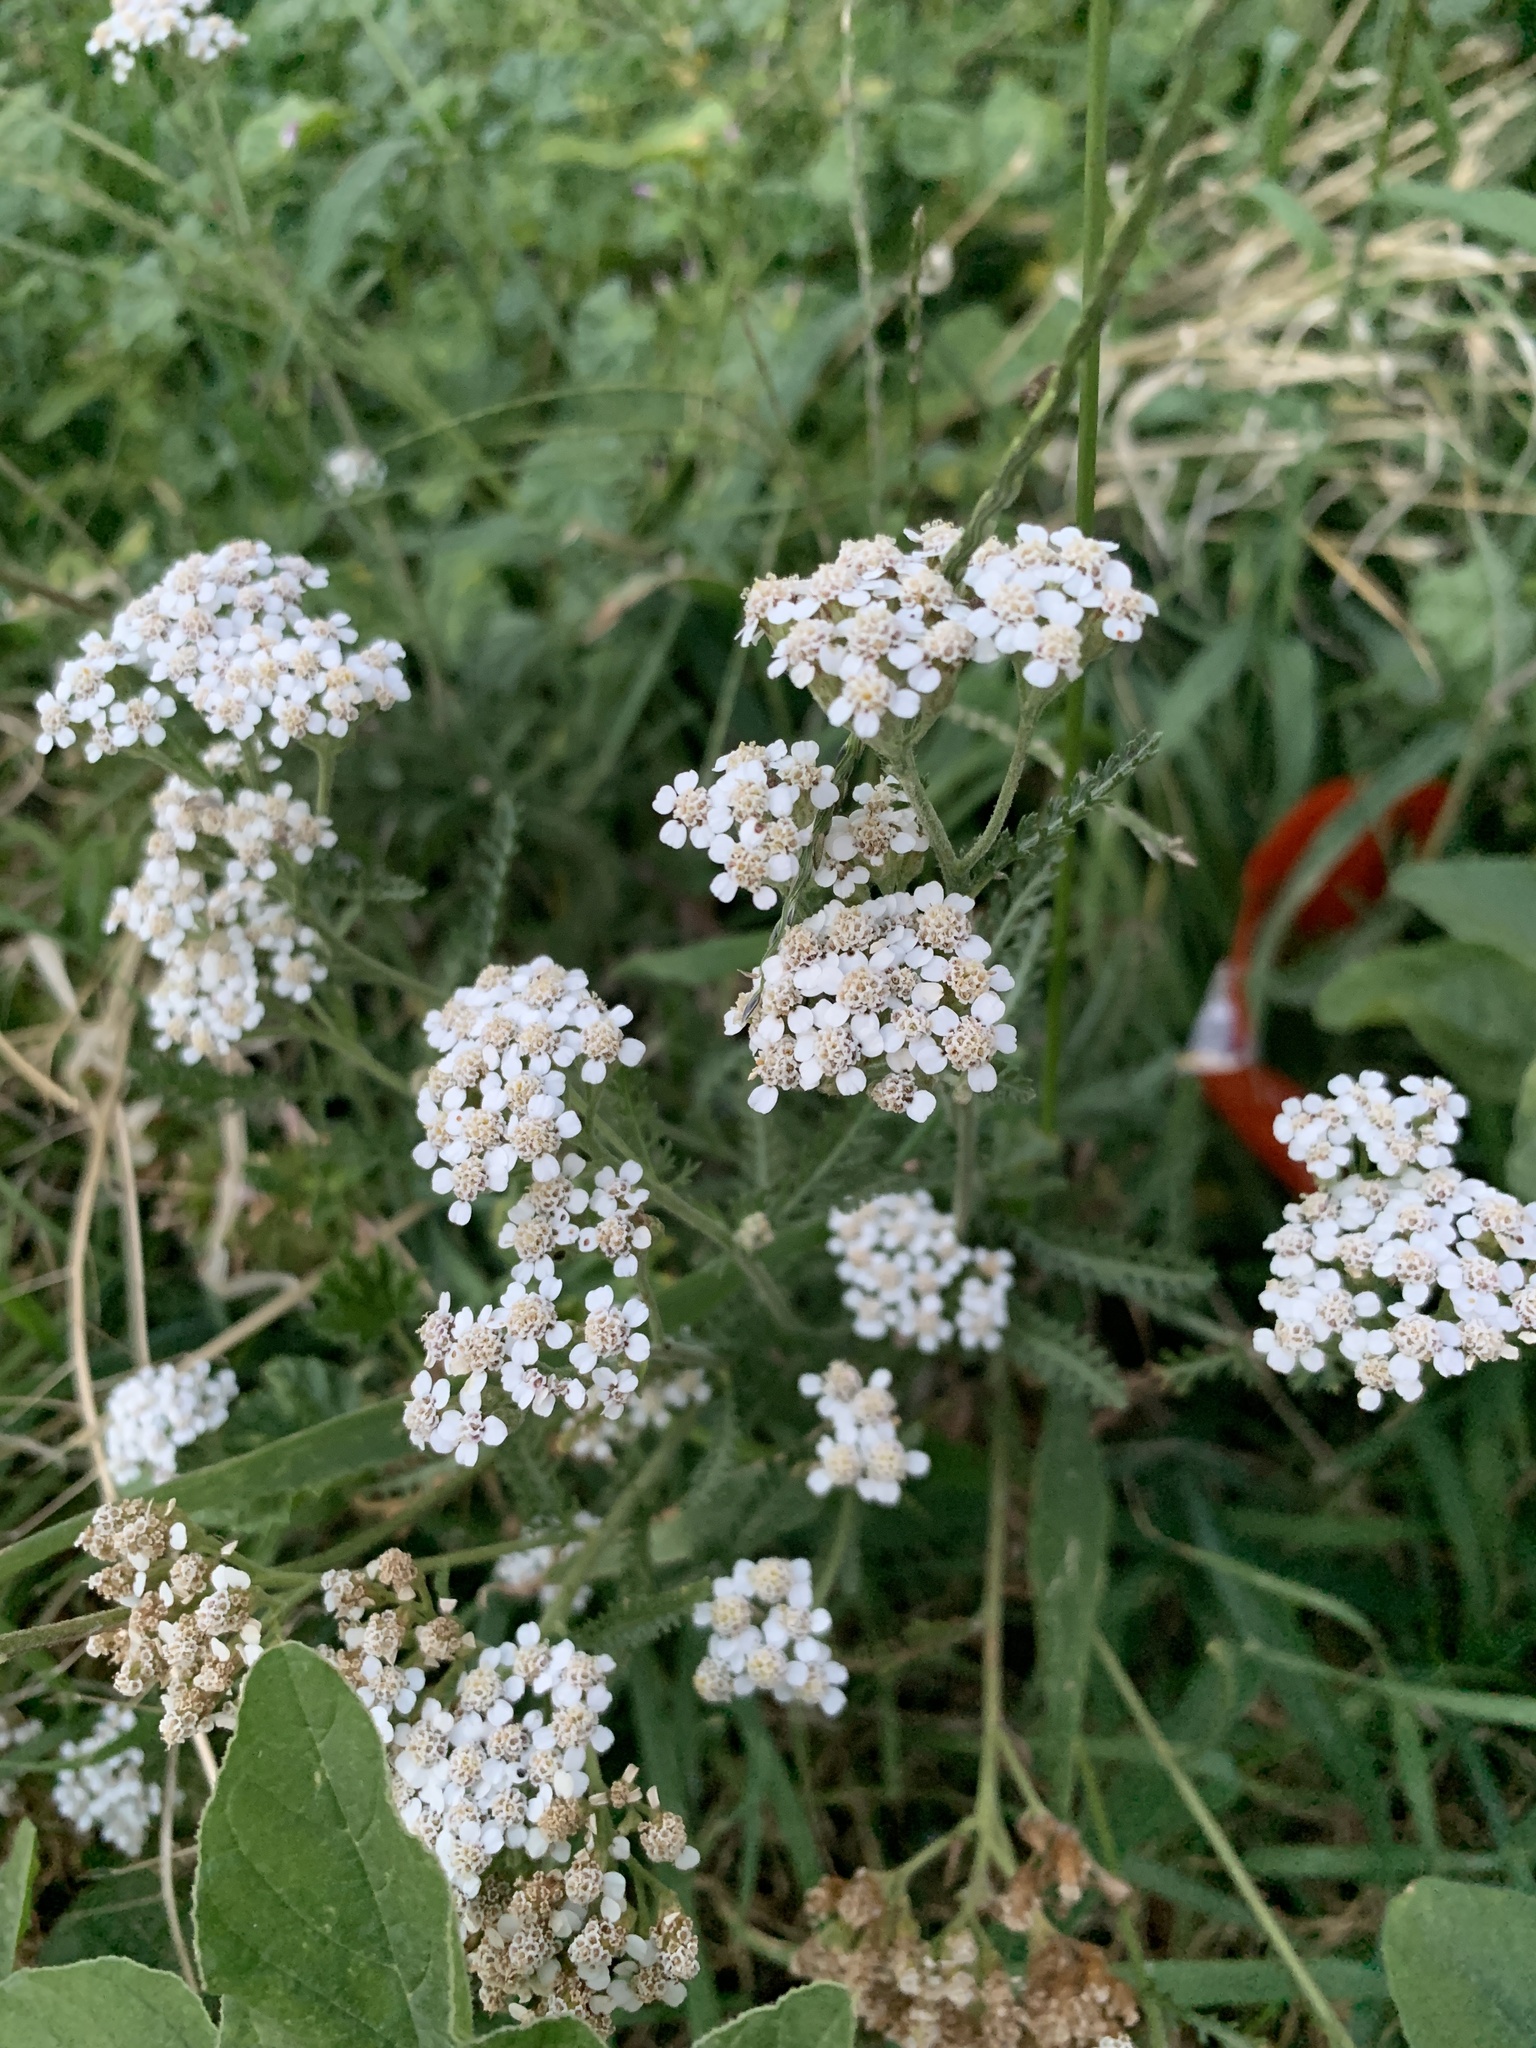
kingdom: Plantae
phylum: Tracheophyta
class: Magnoliopsida
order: Asterales
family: Asteraceae
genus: Achillea
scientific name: Achillea millefolium
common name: Yarrow
